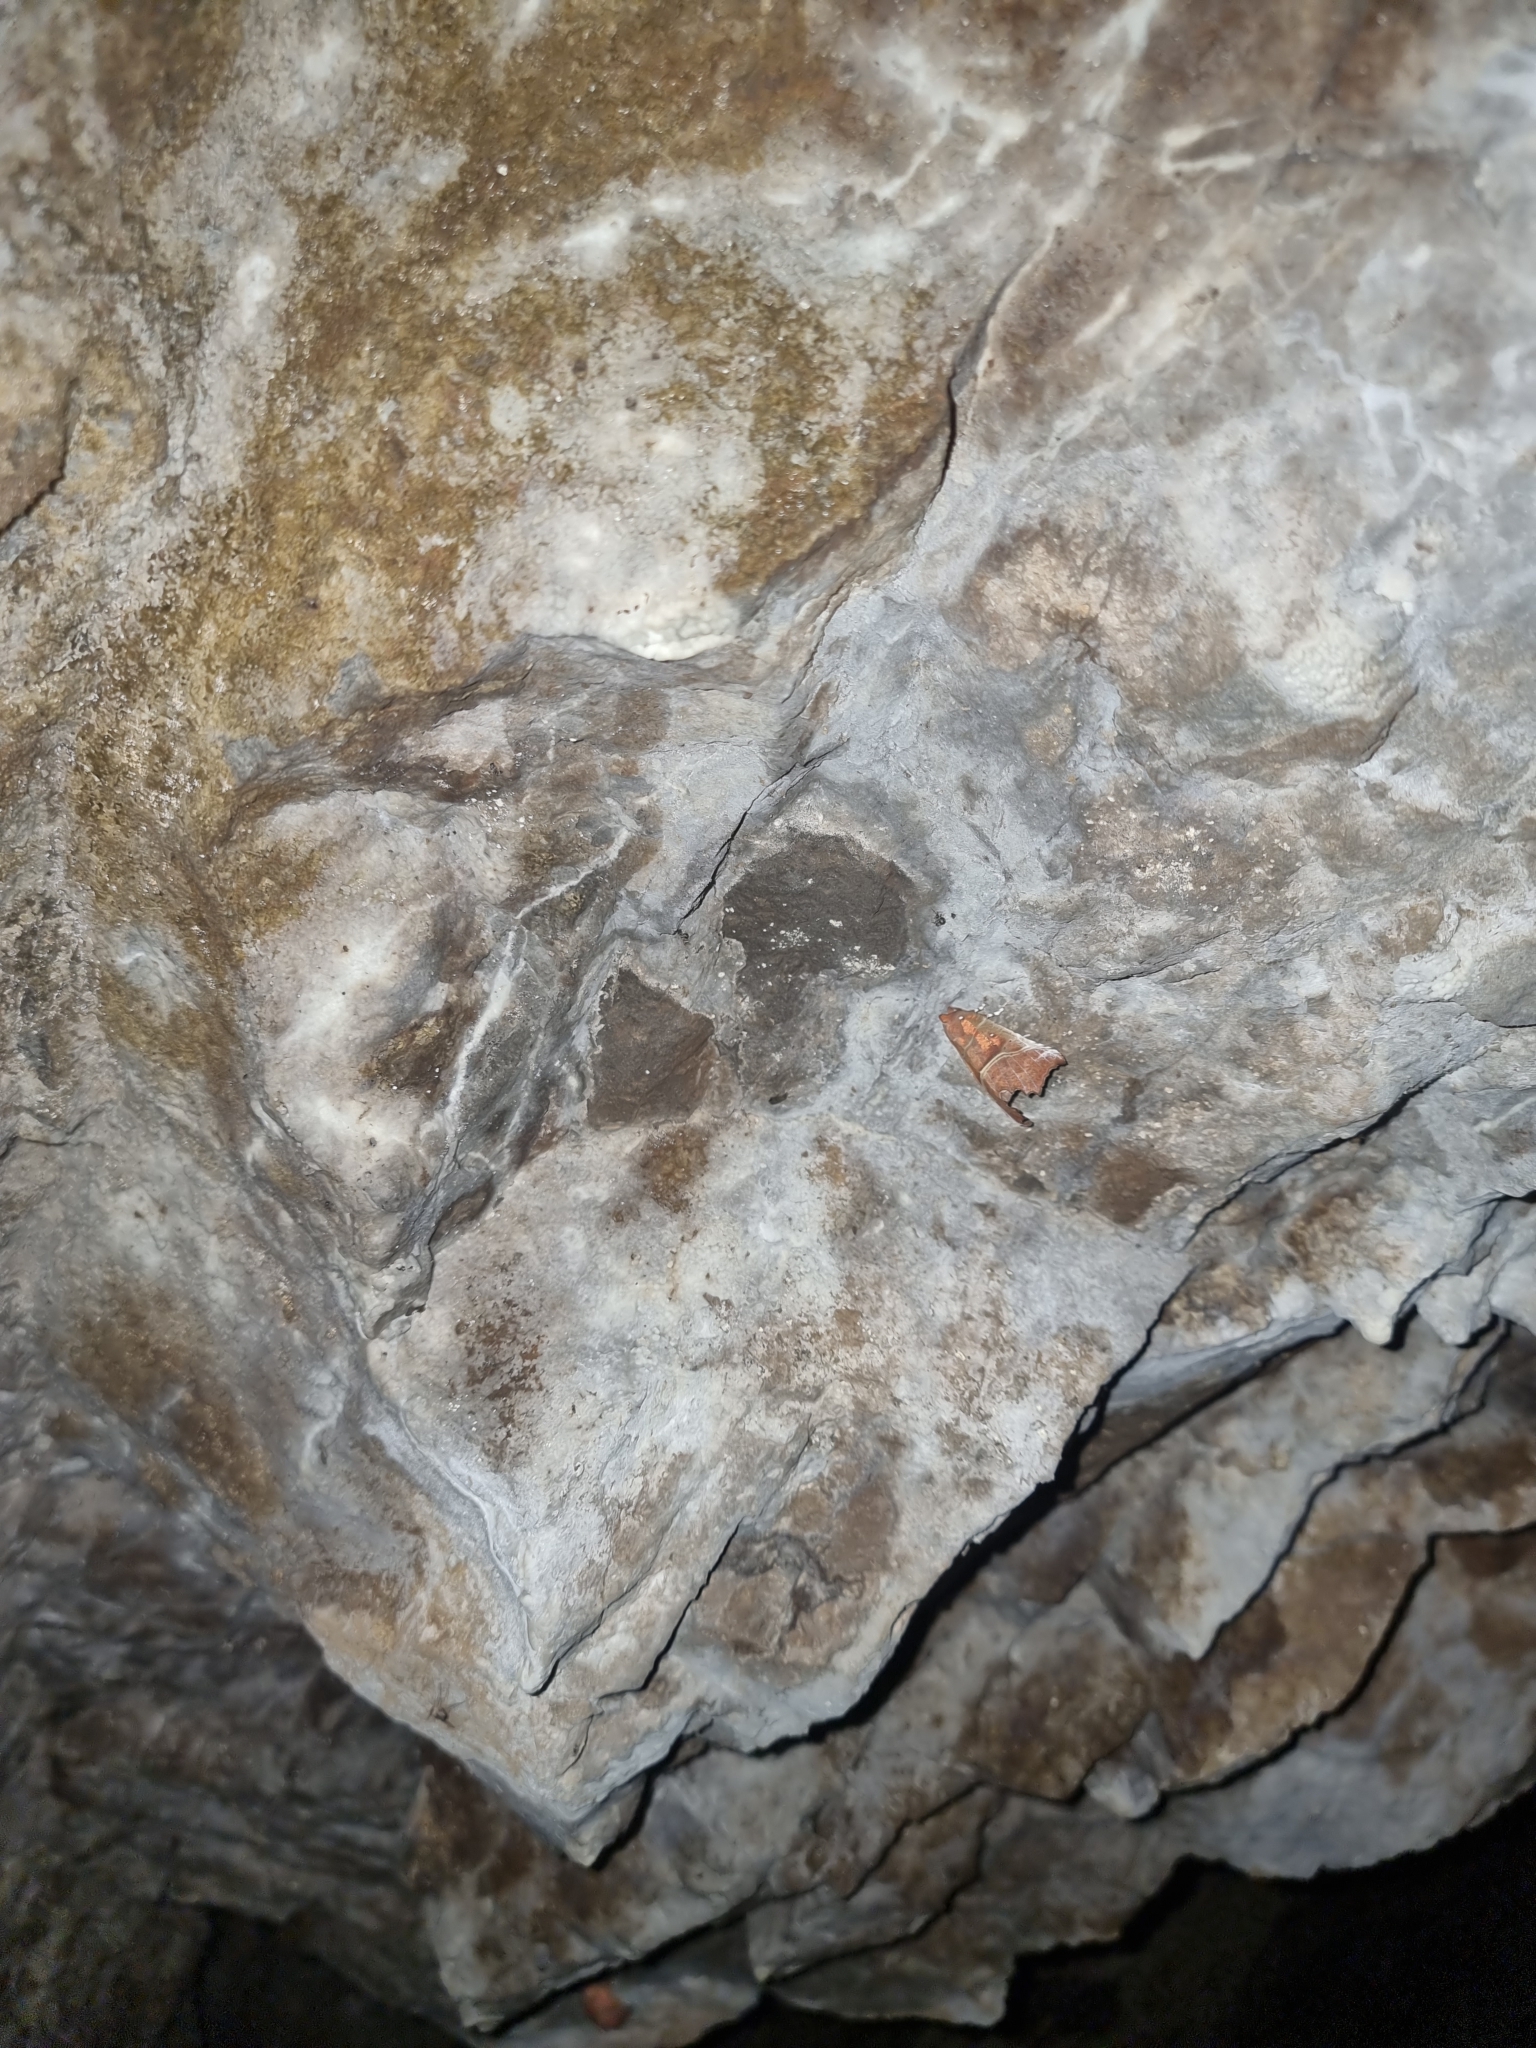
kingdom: Animalia
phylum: Arthropoda
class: Insecta
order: Lepidoptera
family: Erebidae
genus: Scoliopteryx
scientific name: Scoliopteryx libatrix
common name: Herald
